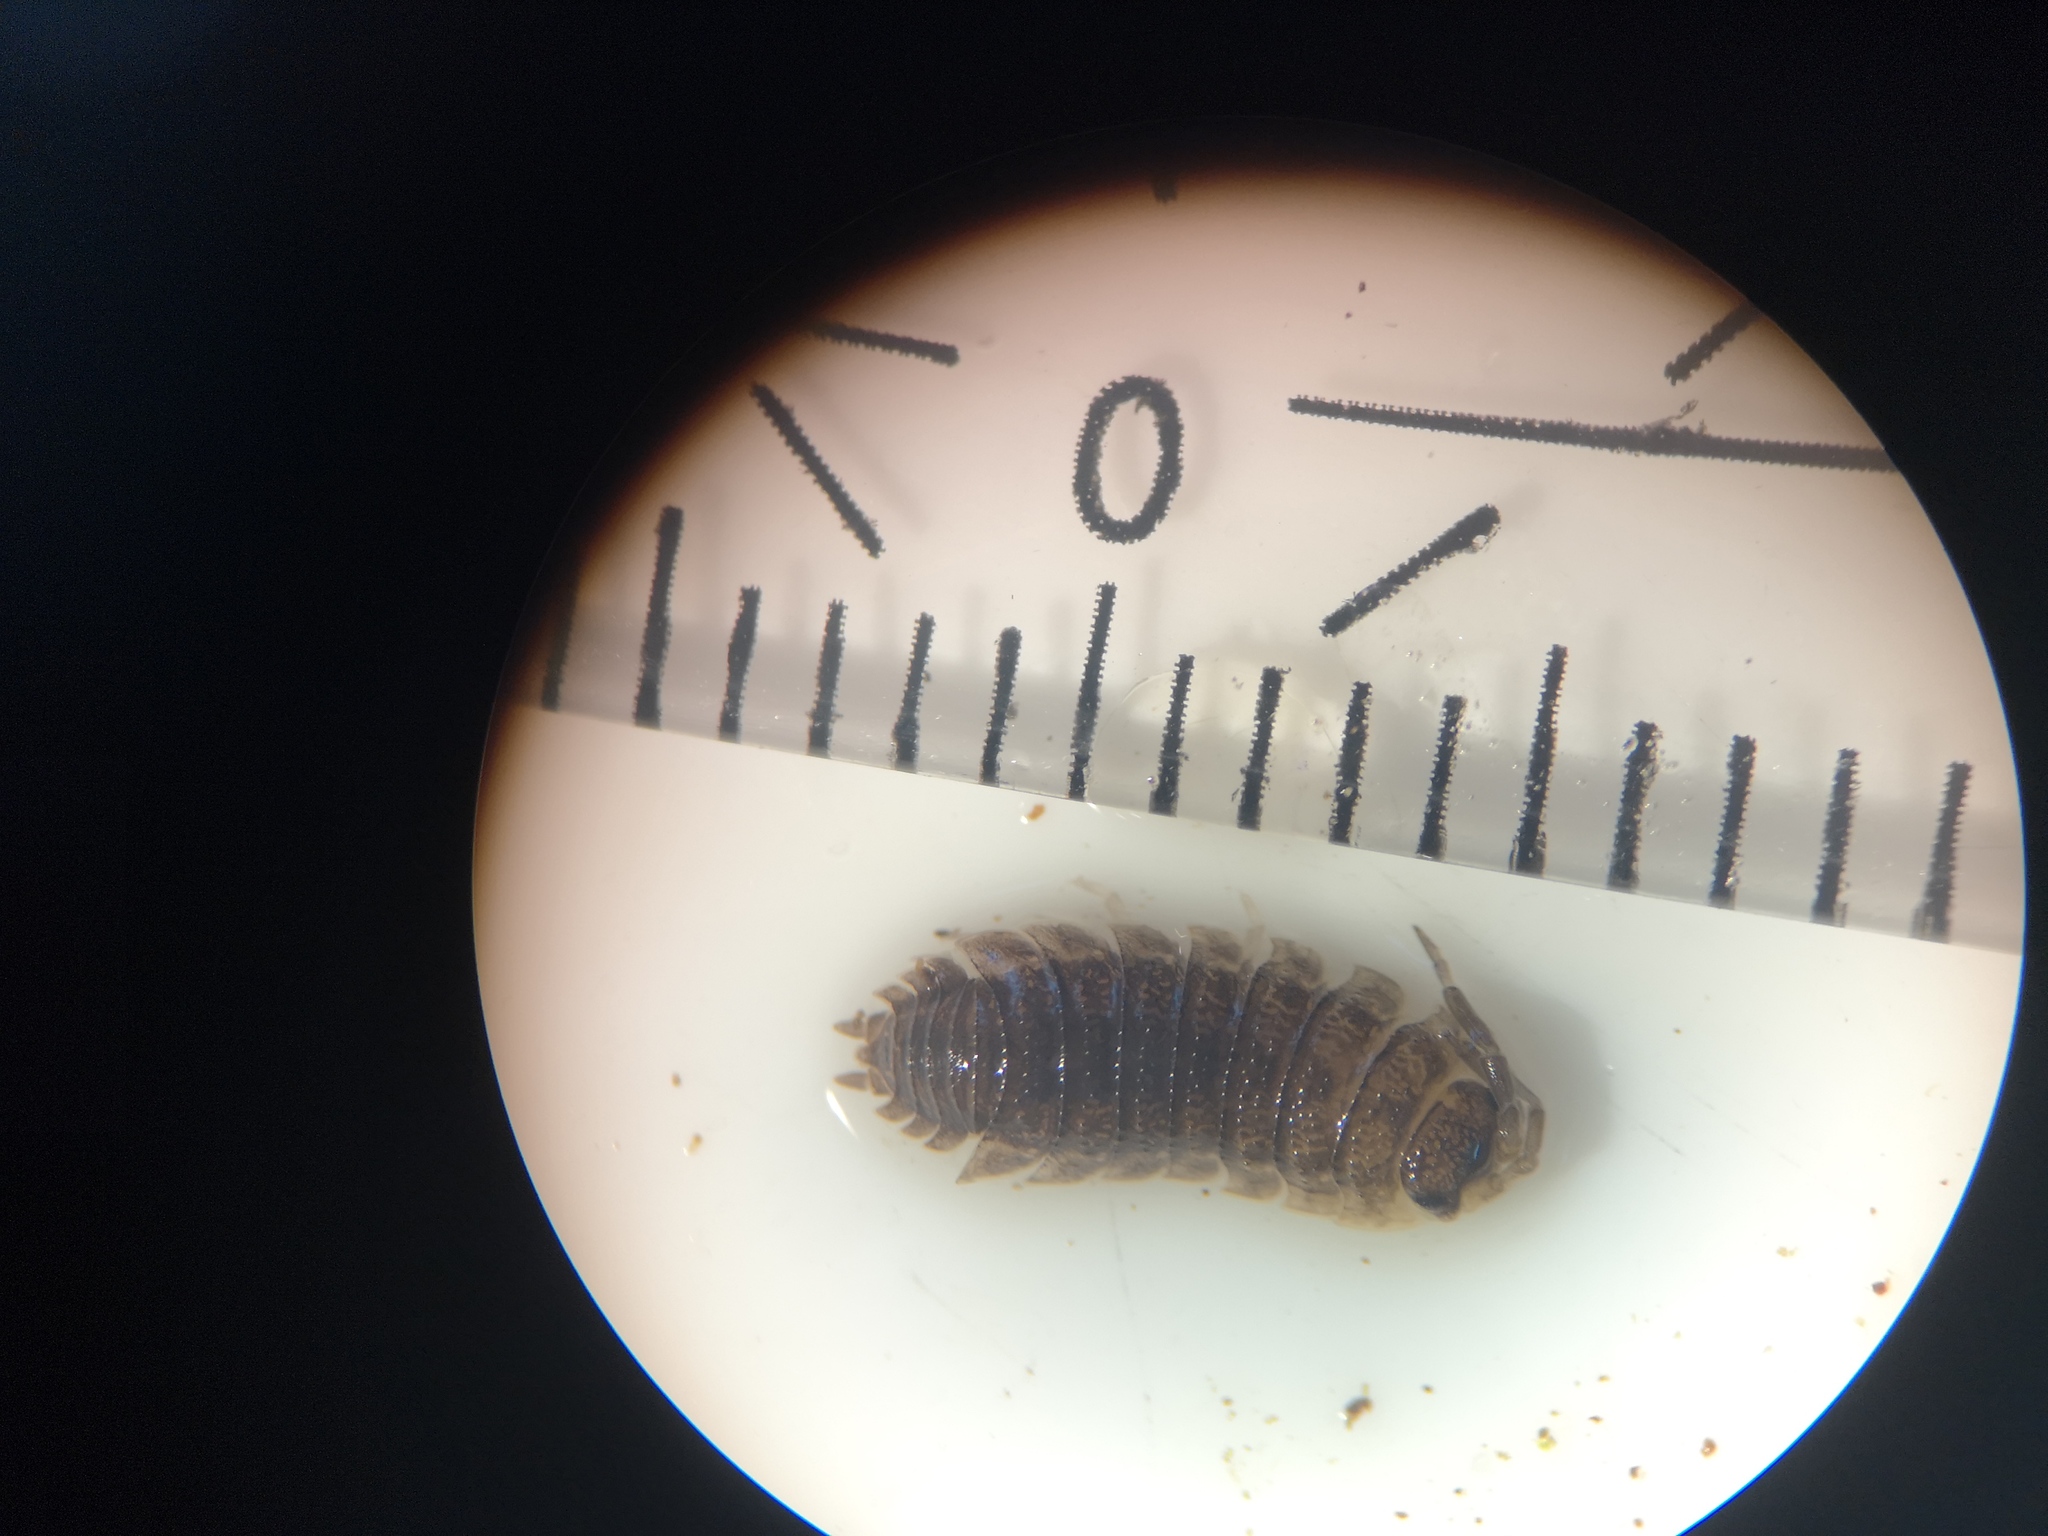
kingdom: Animalia
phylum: Arthropoda
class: Malacostraca
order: Isopoda
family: Porcellionidae
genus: Porcellio
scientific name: Porcellio scaber
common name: Common rough woodlouse
